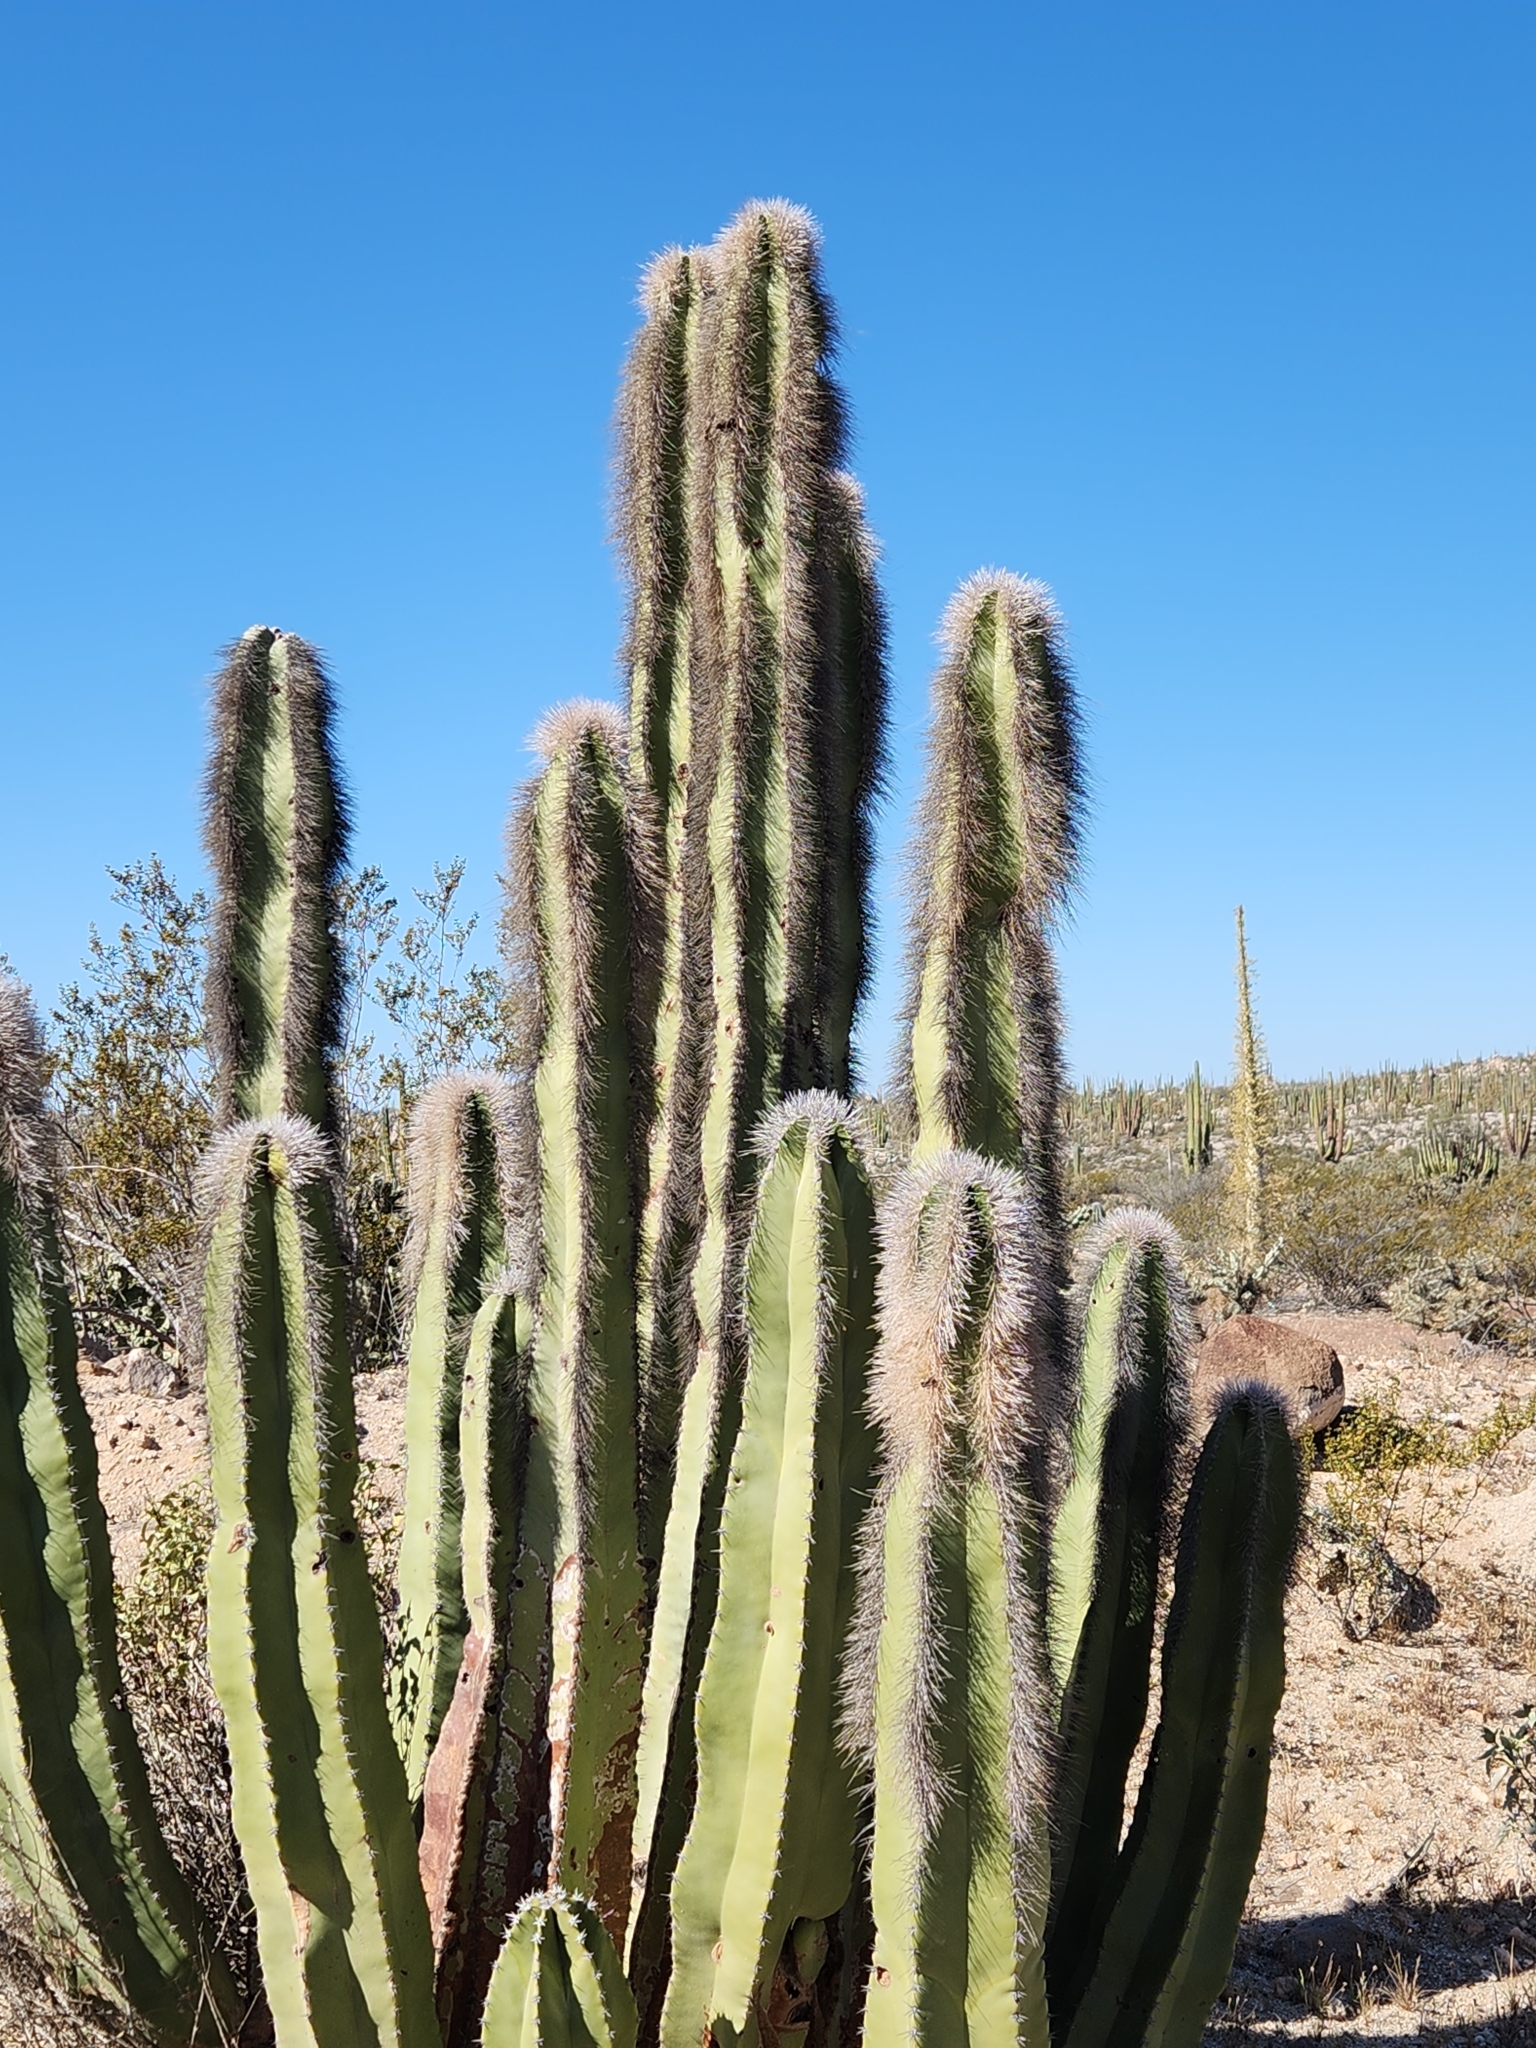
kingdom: Plantae
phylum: Tracheophyta
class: Magnoliopsida
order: Caryophyllales
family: Cactaceae
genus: Pachycereus
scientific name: Pachycereus schottii
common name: Senita cactus
